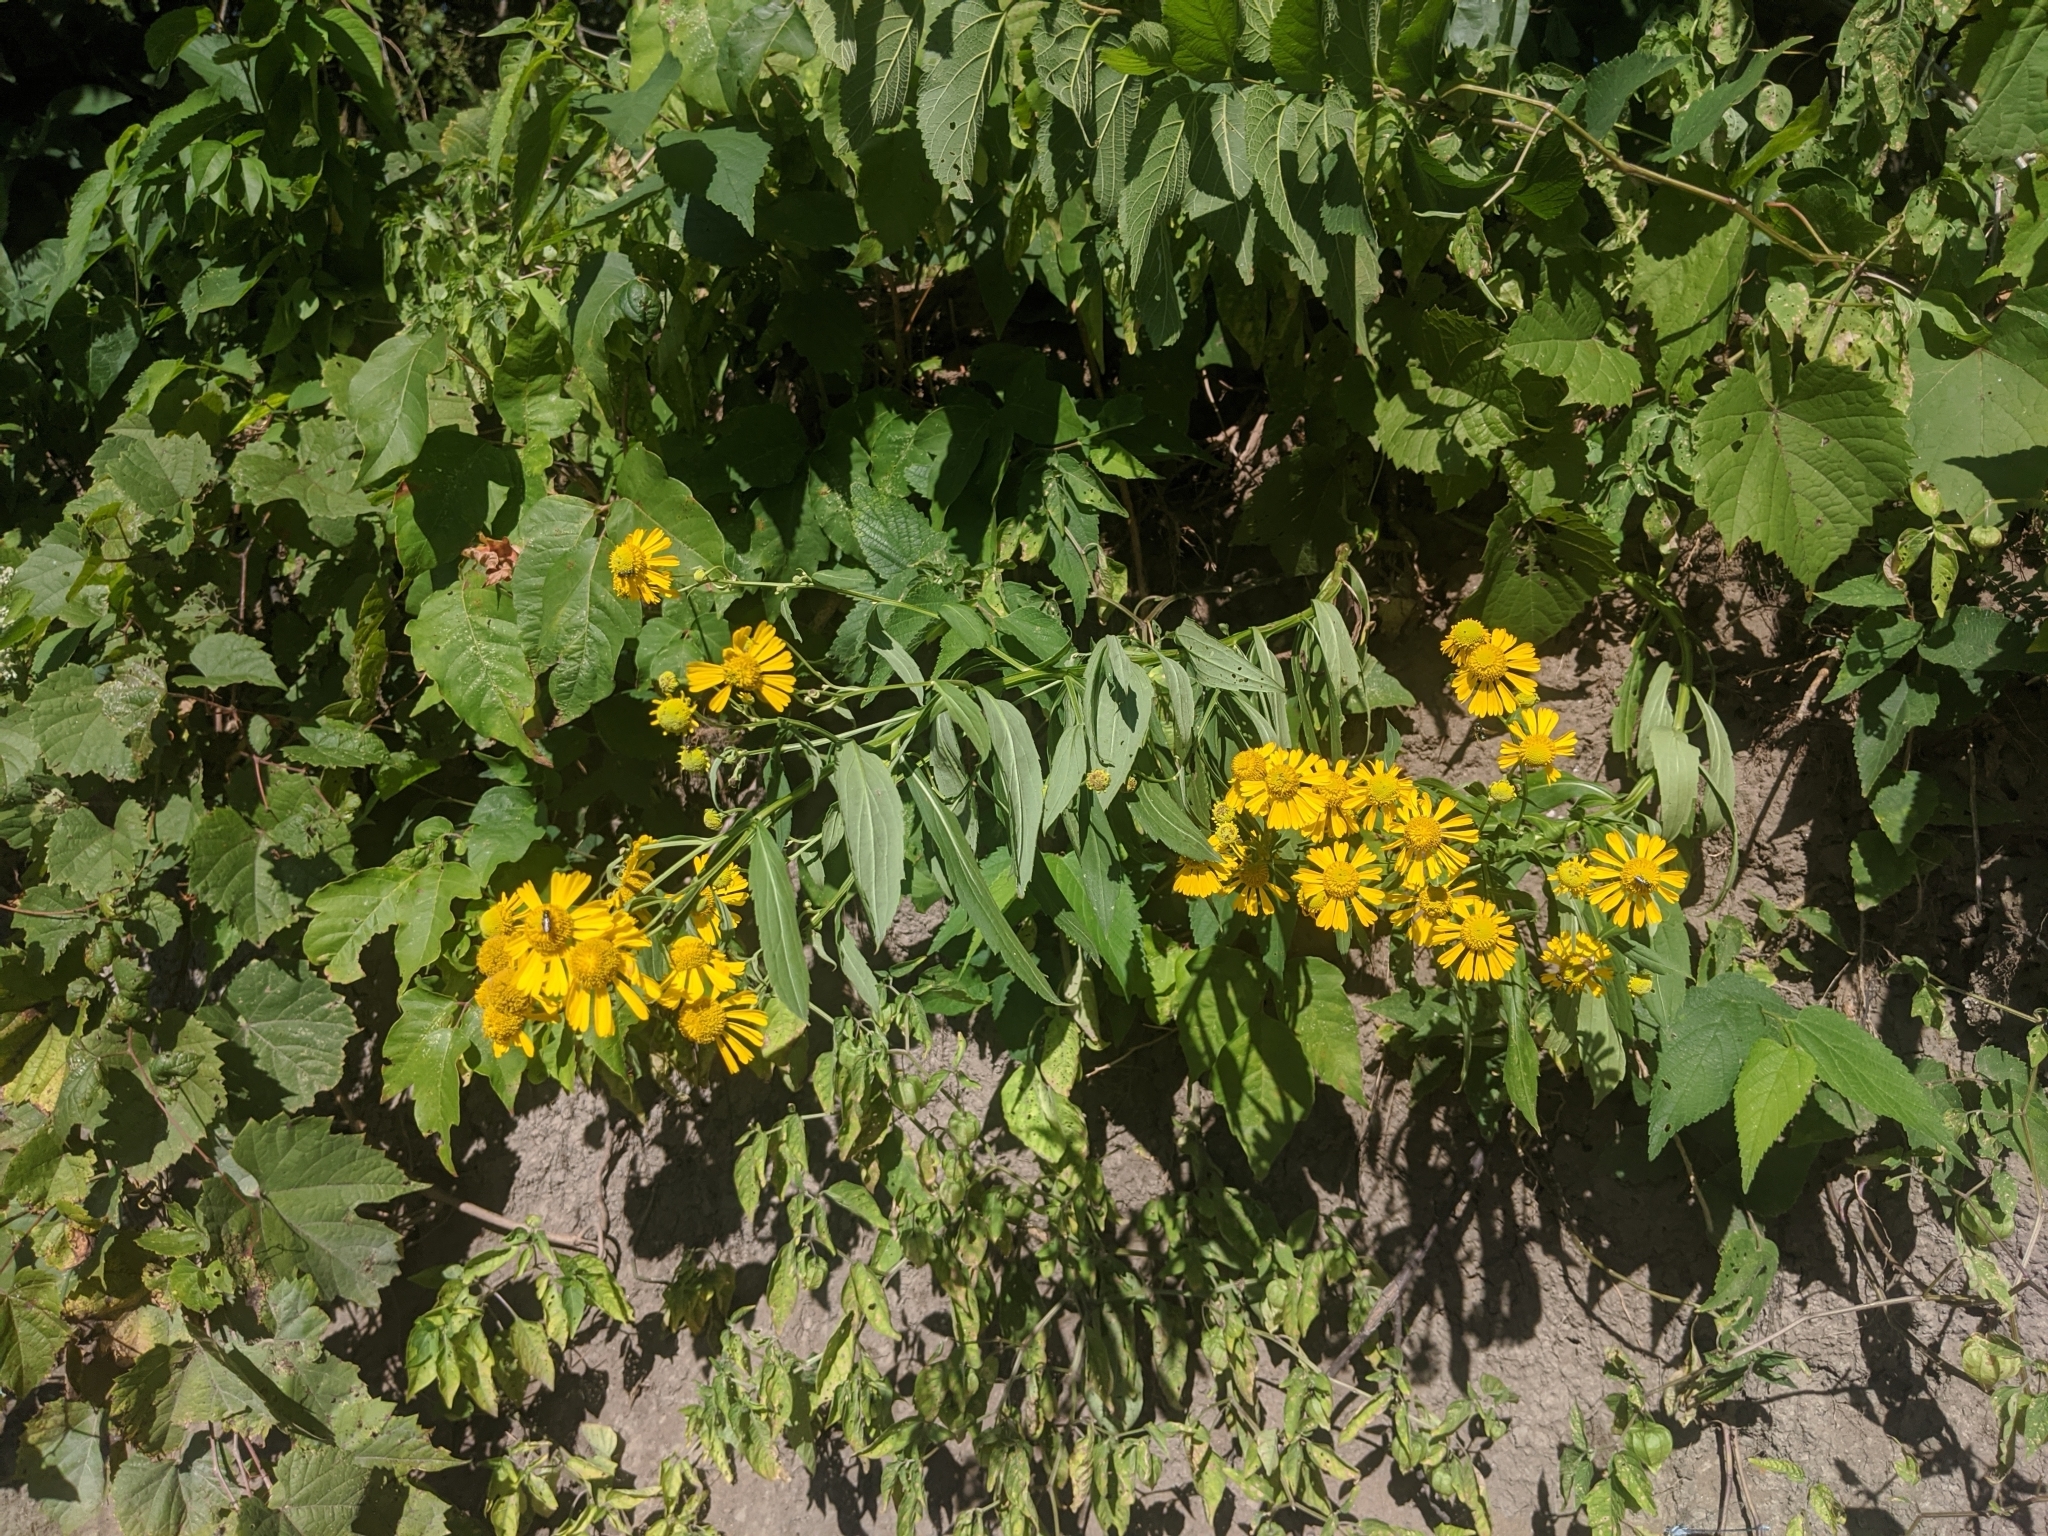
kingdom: Plantae
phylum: Tracheophyta
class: Magnoliopsida
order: Asterales
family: Asteraceae
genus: Helenium
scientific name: Helenium autumnale
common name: Sneezeweed
